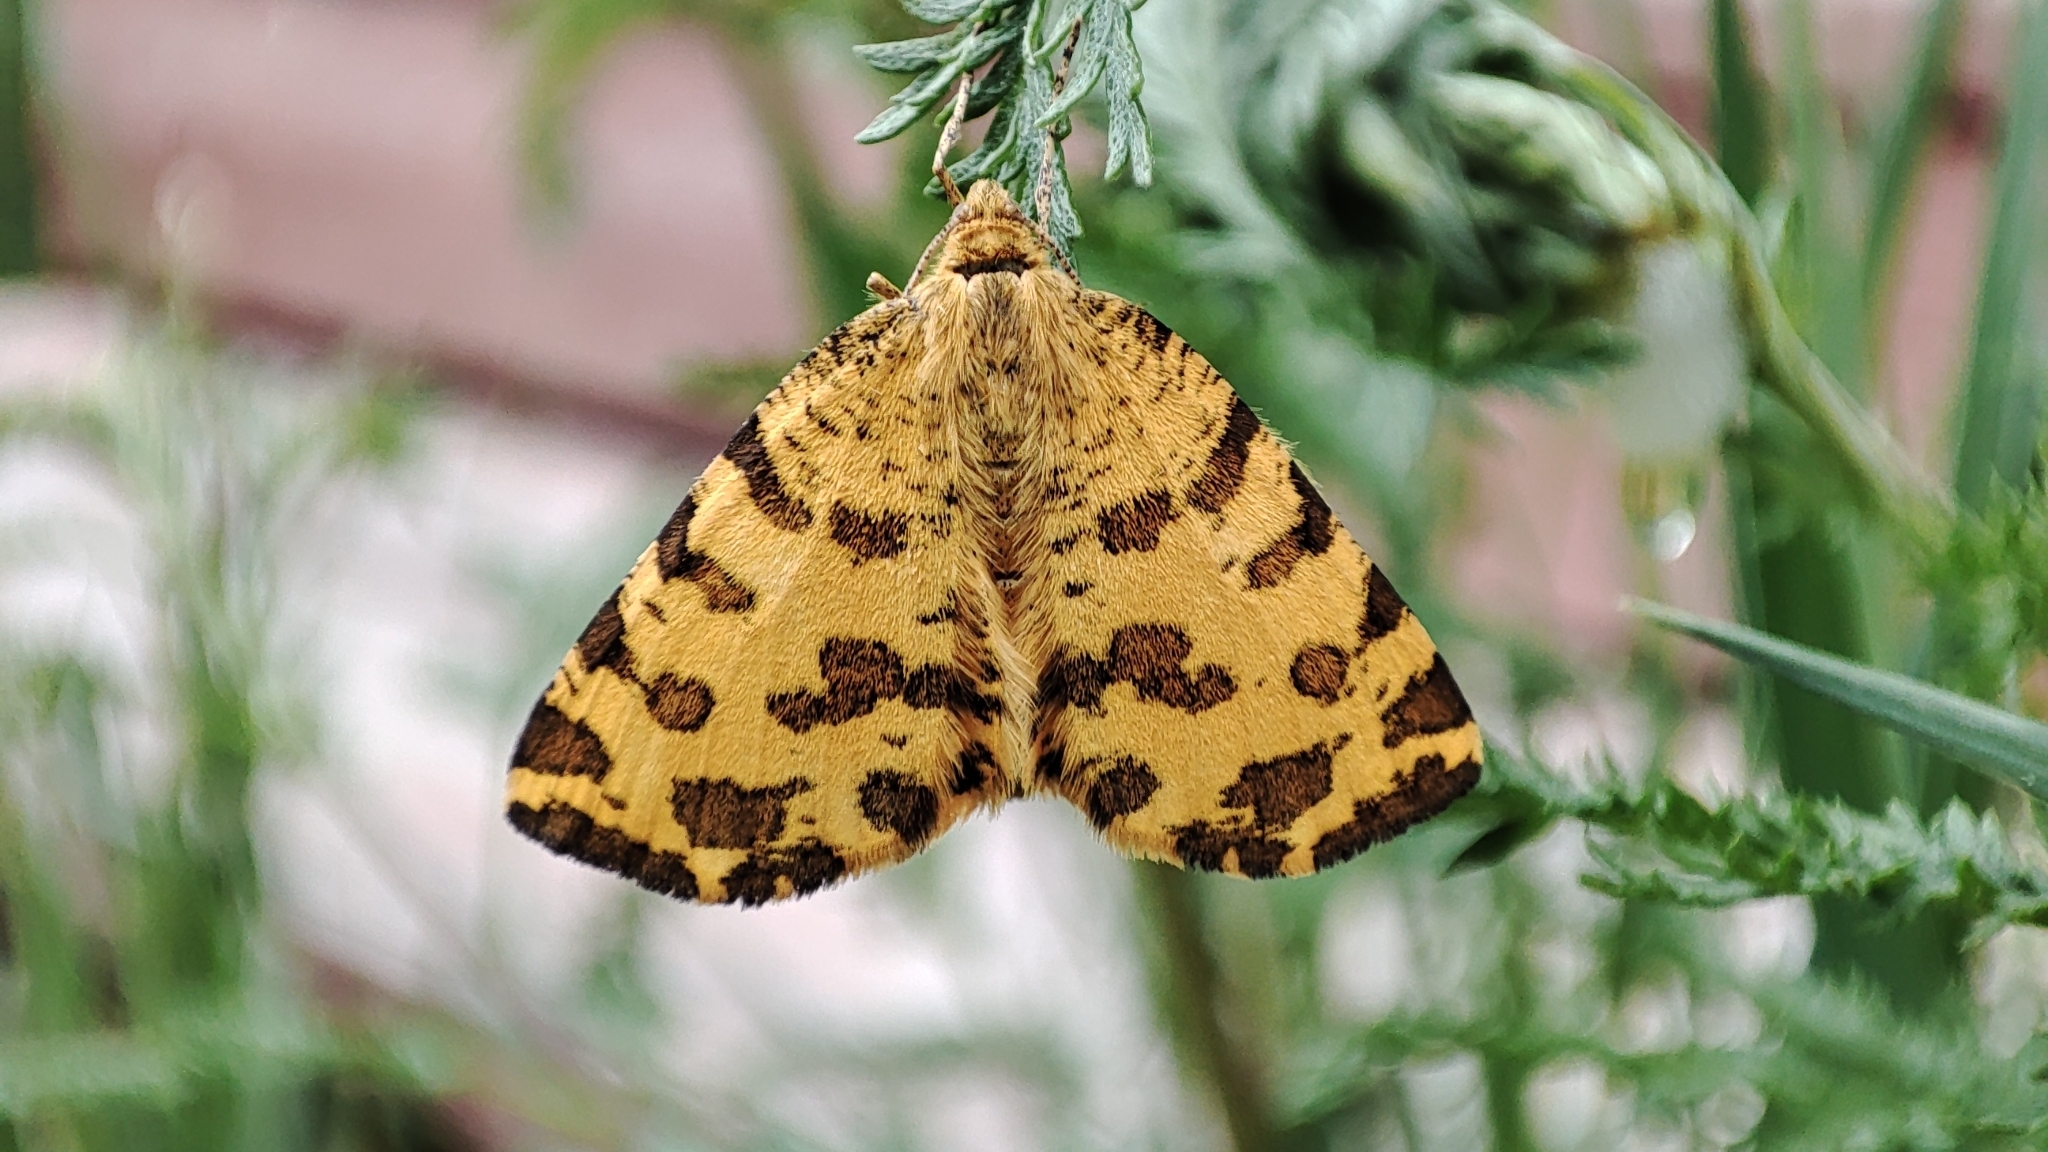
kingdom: Animalia
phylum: Arthropoda
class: Insecta
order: Lepidoptera
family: Geometridae
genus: Pseudopanthera
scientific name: Pseudopanthera macularia
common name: Speckled yellow
